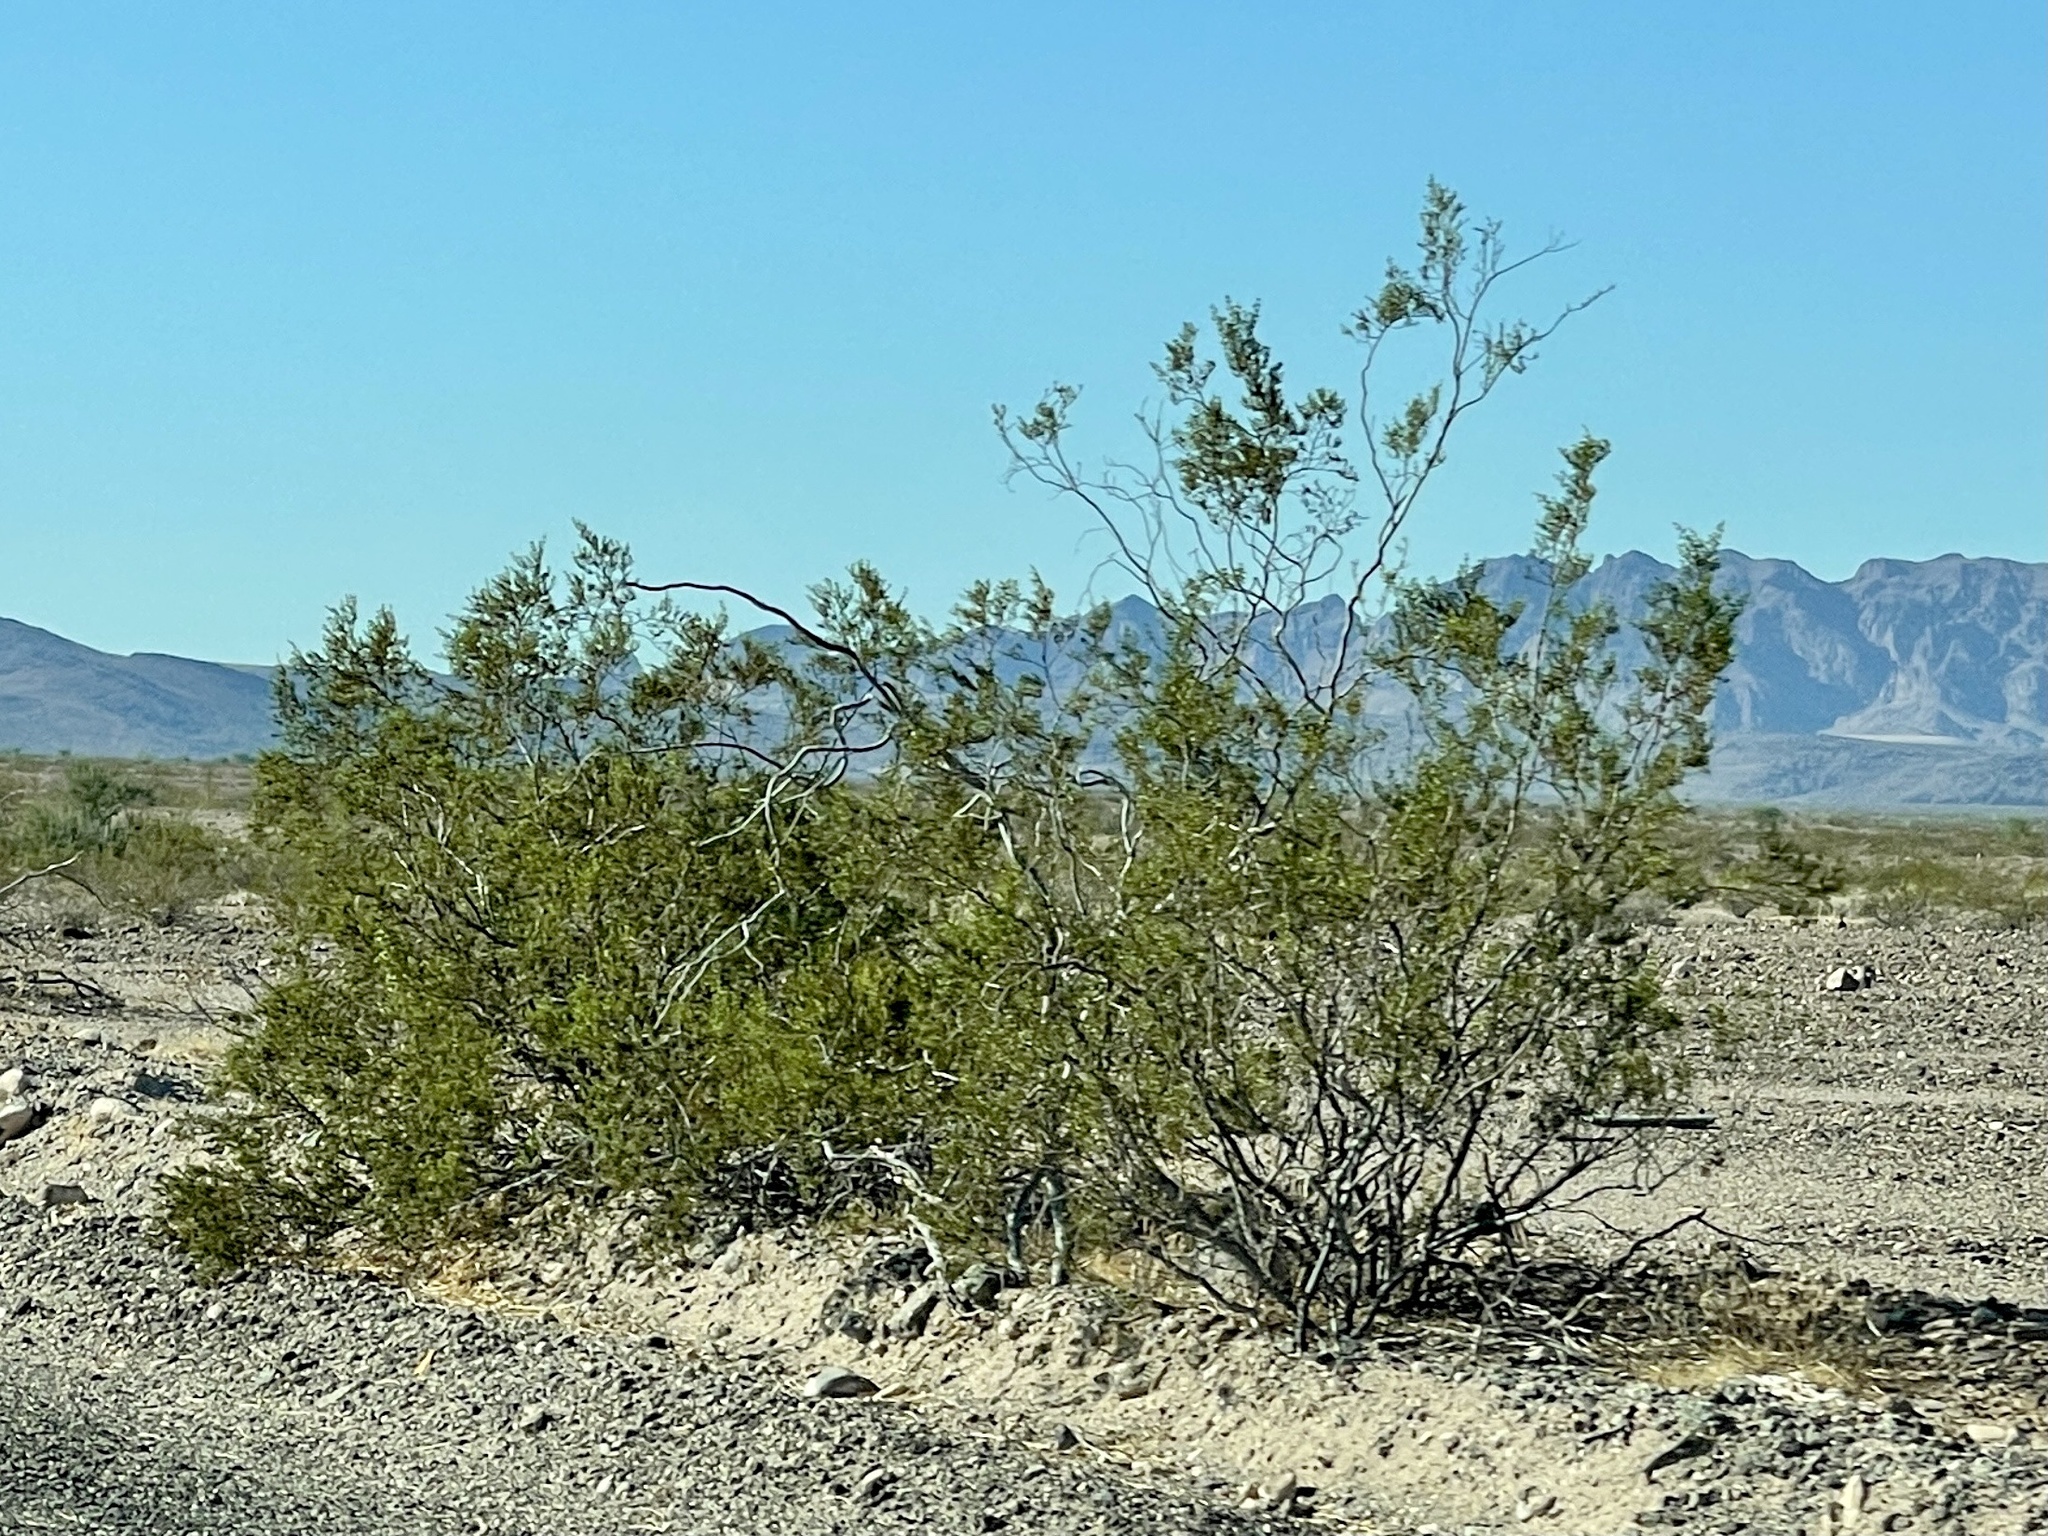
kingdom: Plantae
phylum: Tracheophyta
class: Magnoliopsida
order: Zygophyllales
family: Zygophyllaceae
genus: Larrea
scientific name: Larrea tridentata
